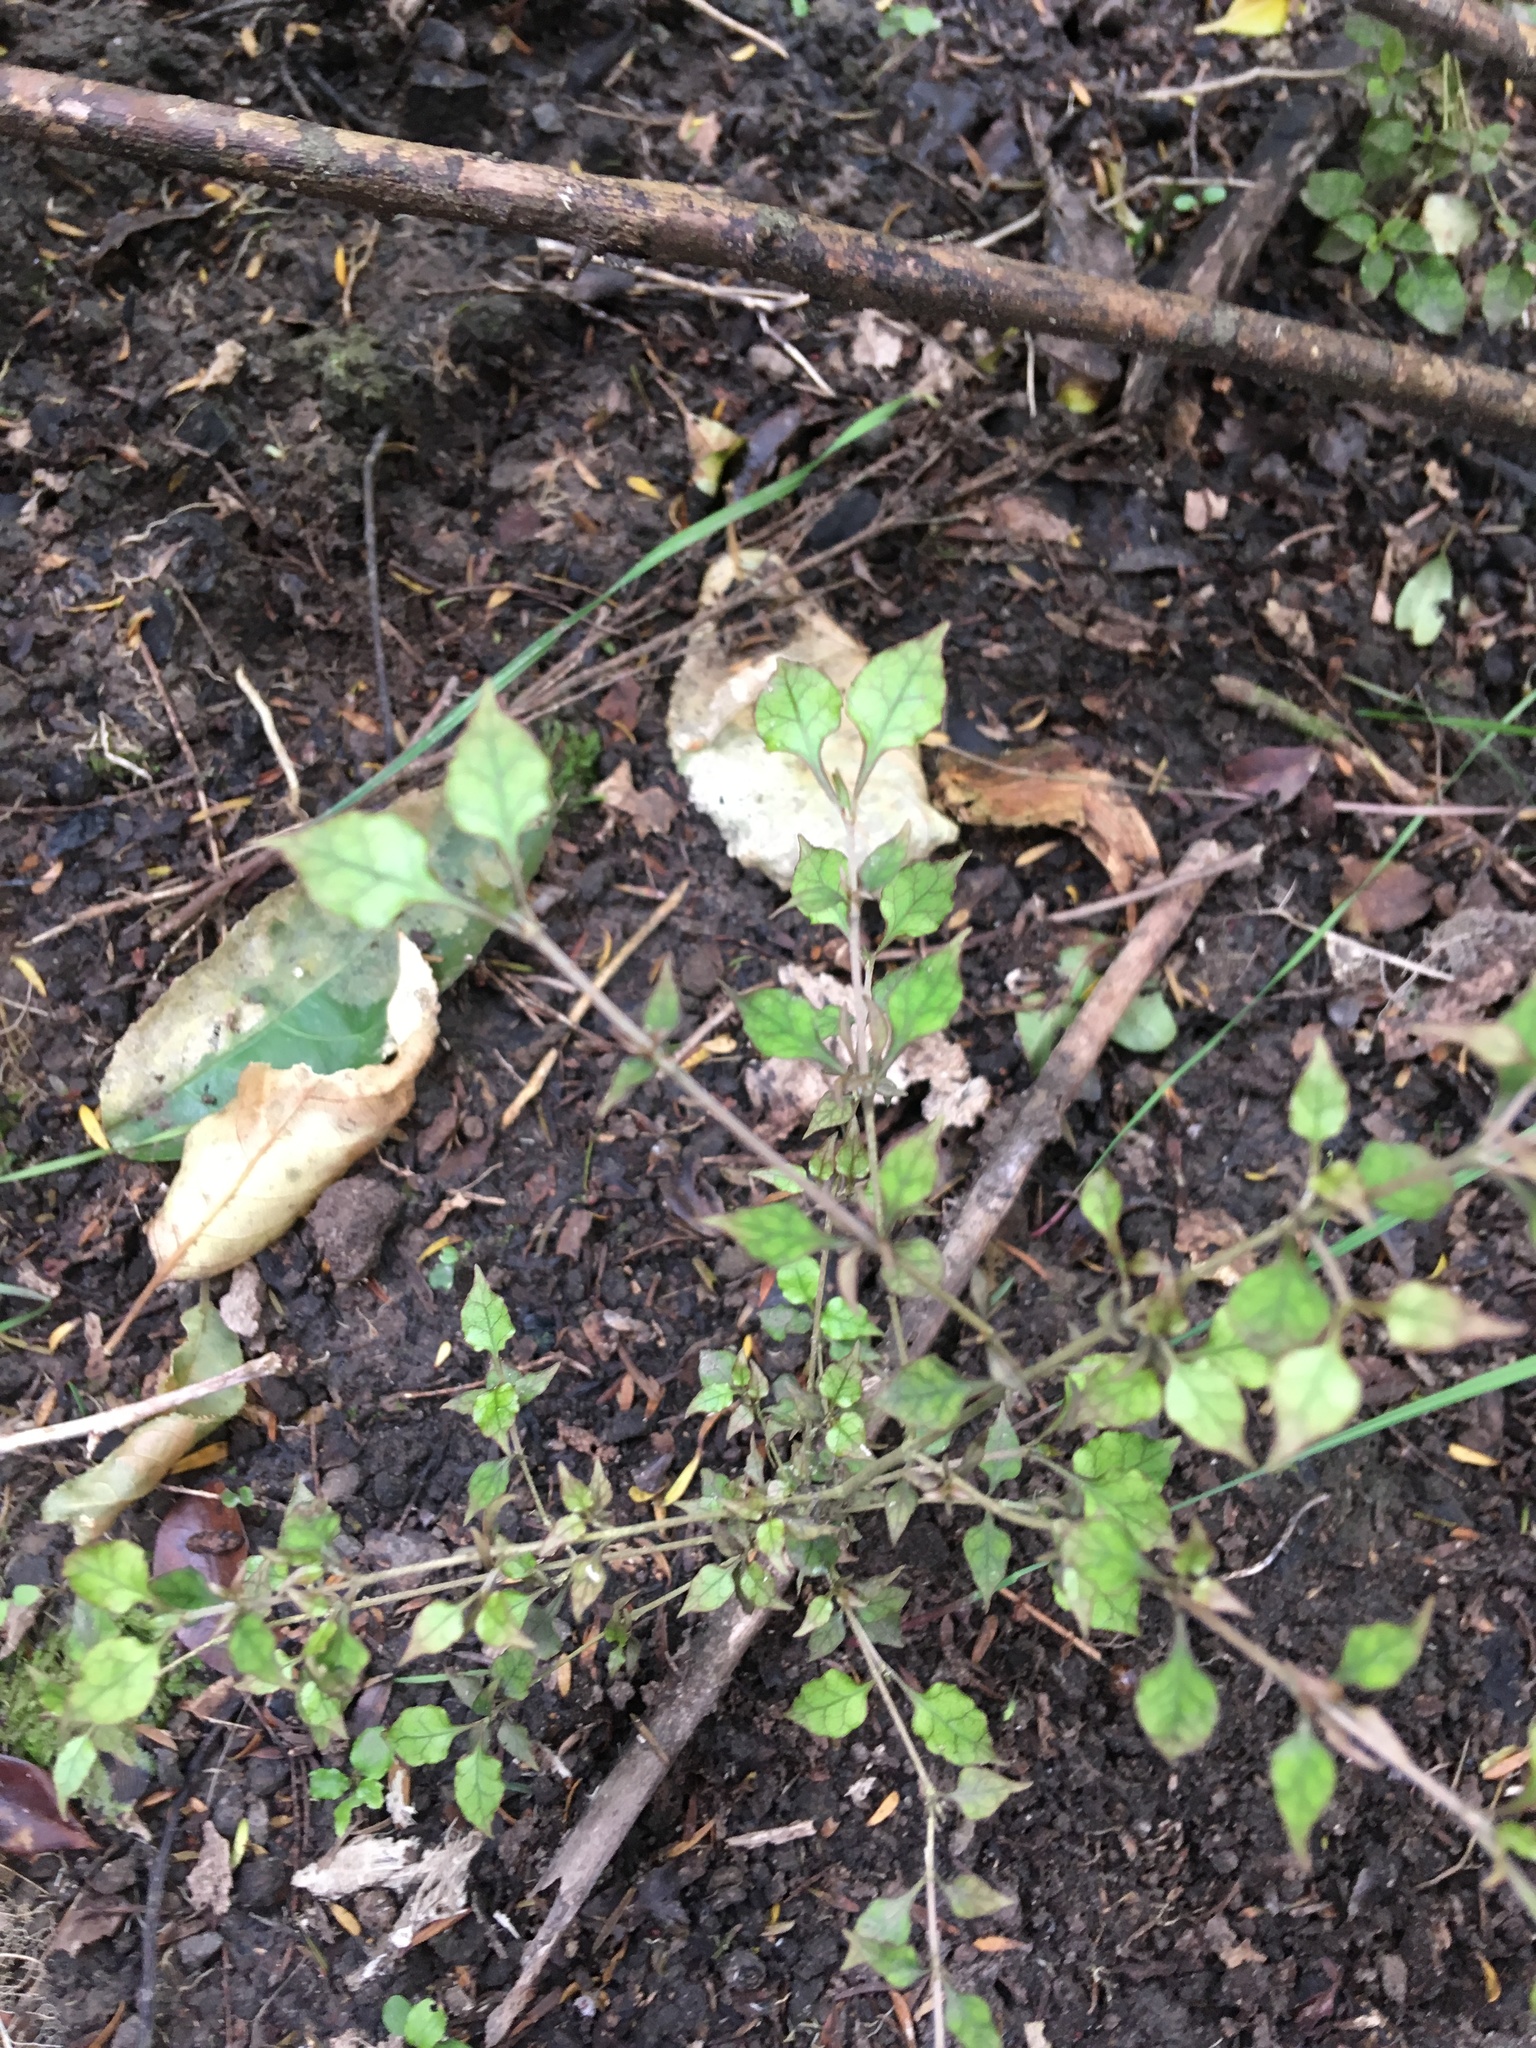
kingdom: Plantae
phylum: Tracheophyta
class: Magnoliopsida
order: Gentianales
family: Rubiaceae
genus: Coprosma
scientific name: Coprosma areolata
